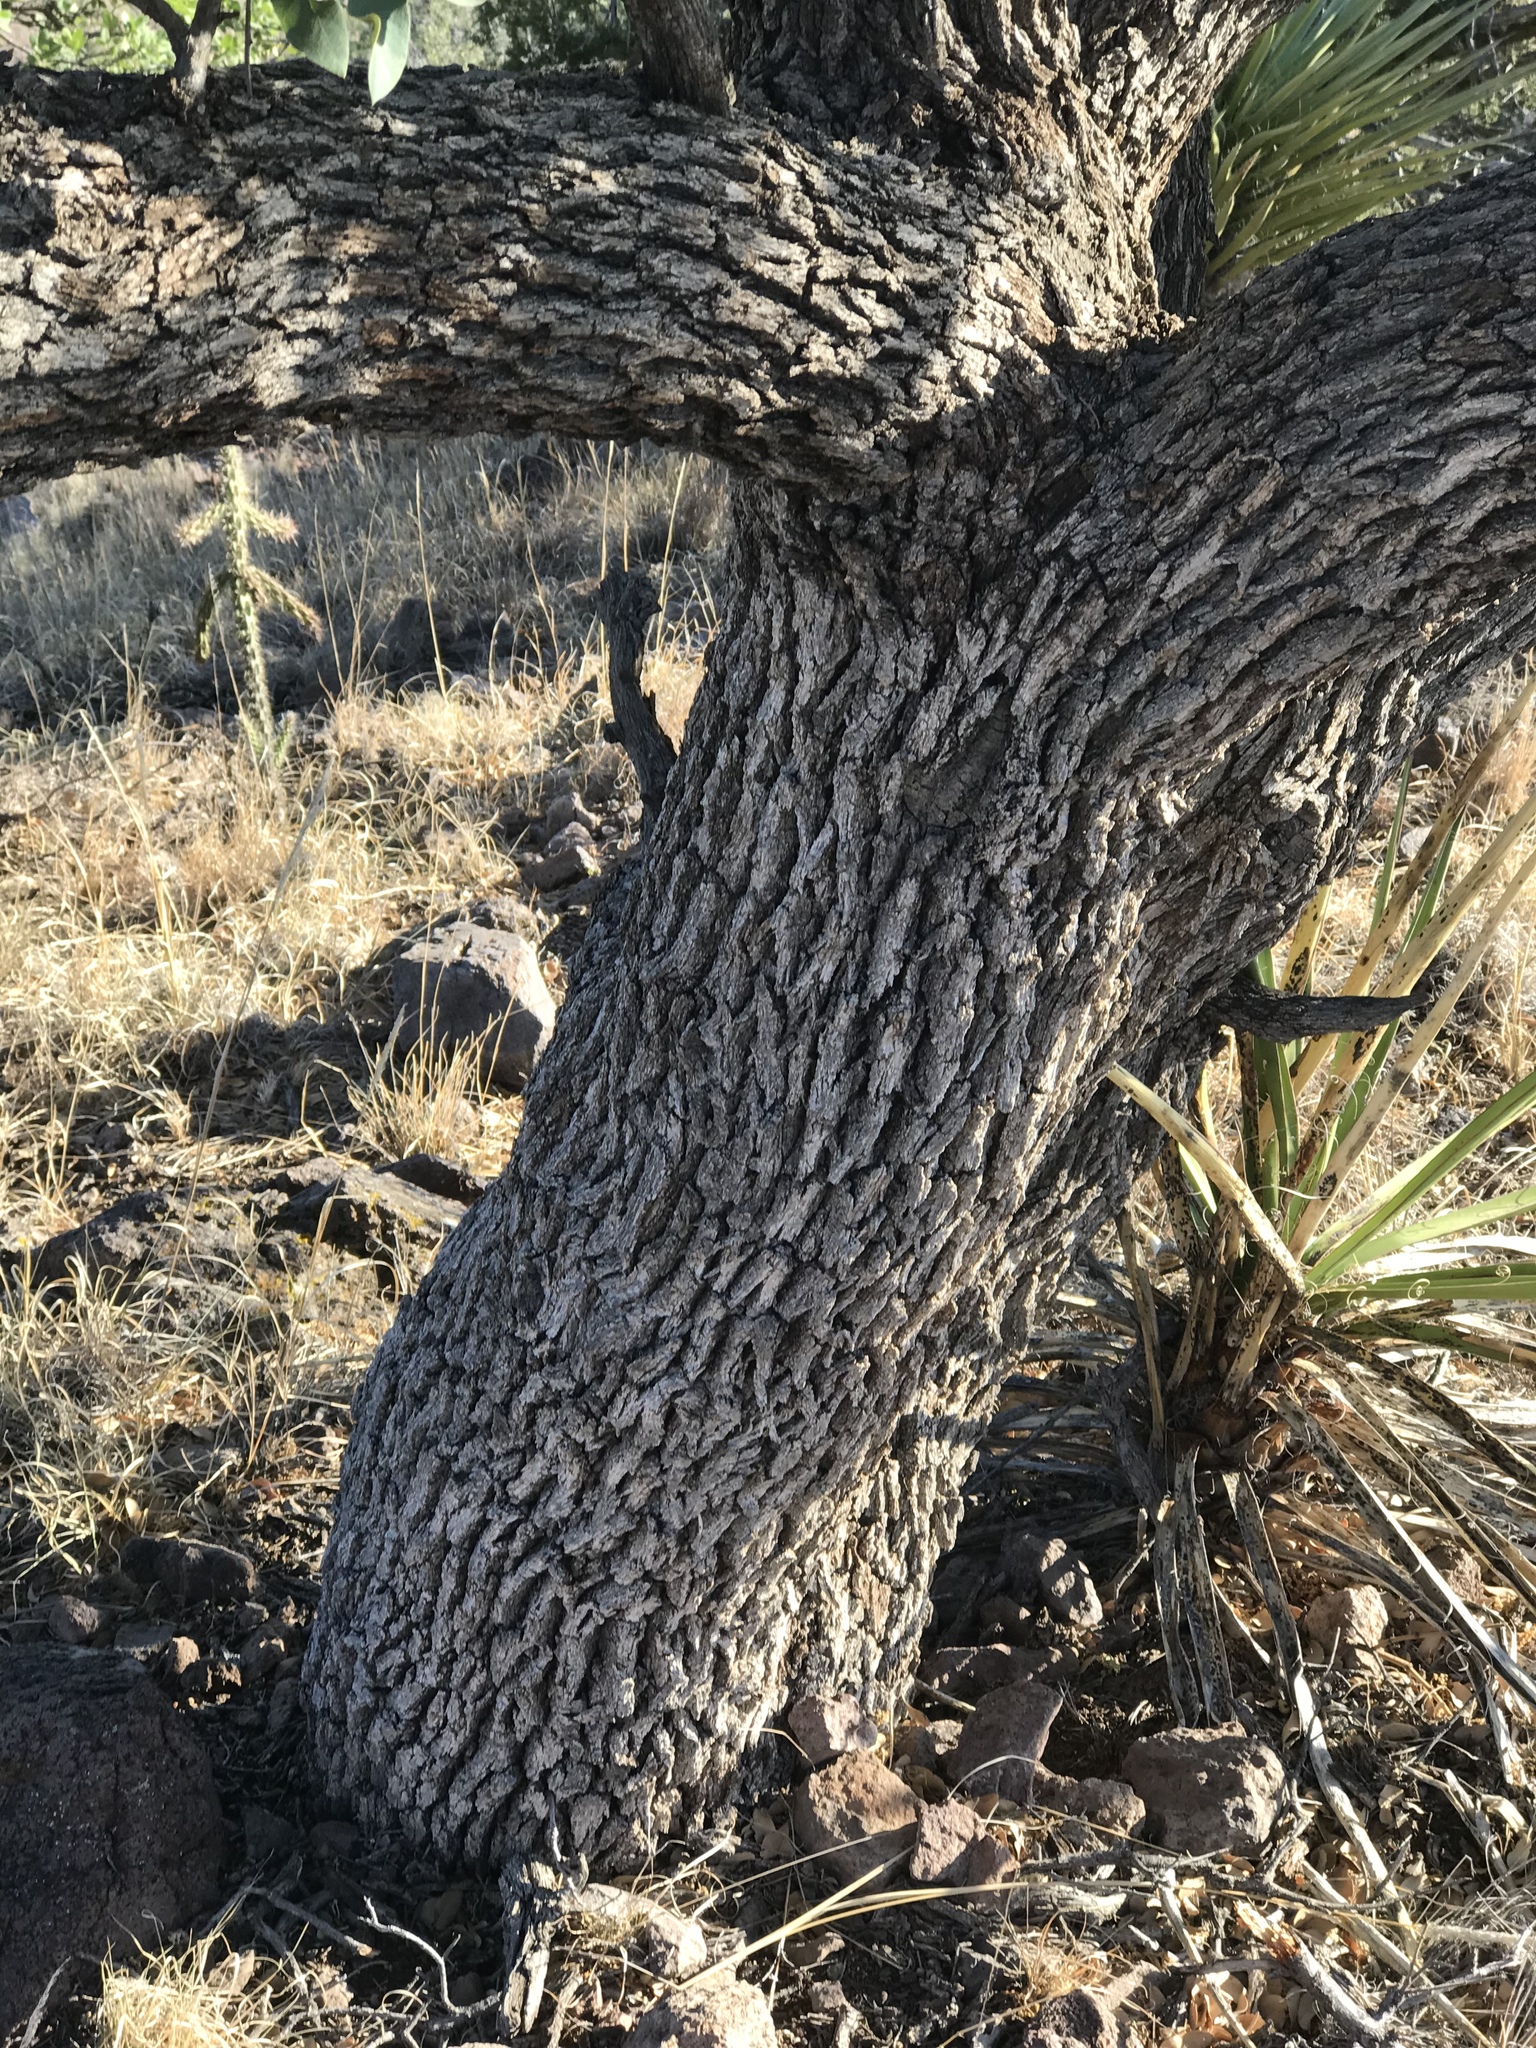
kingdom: Plantae
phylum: Tracheophyta
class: Magnoliopsida
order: Fagales
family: Fagaceae
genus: Quercus
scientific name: Quercus grisea
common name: Gray oak
